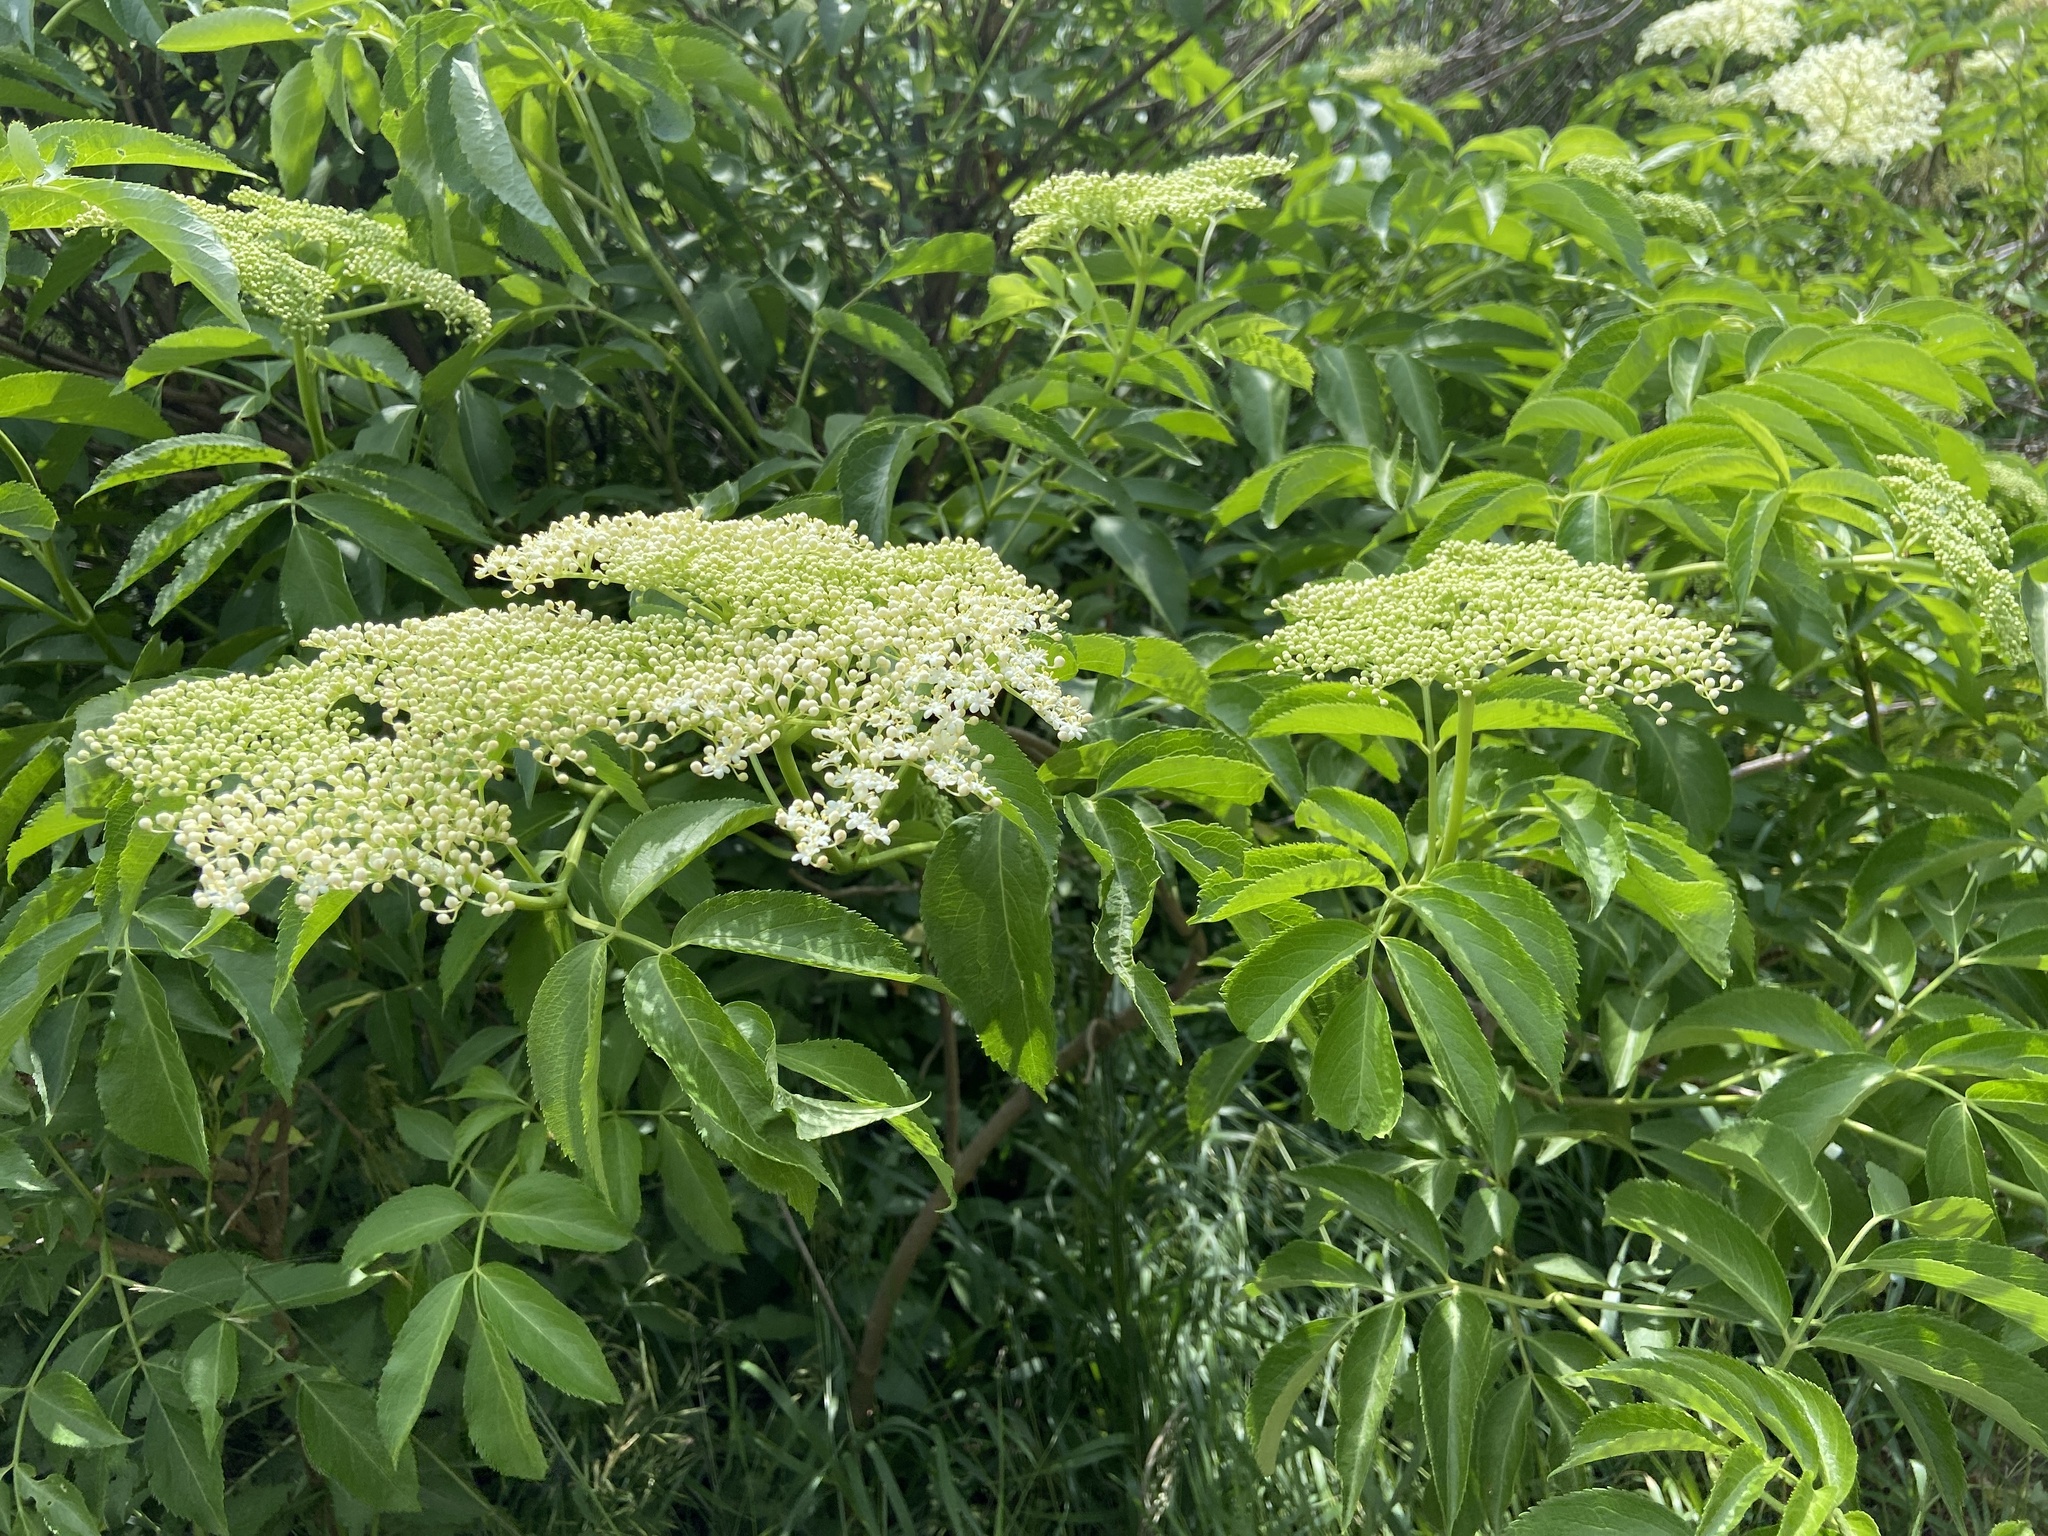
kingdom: Plantae
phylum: Tracheophyta
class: Magnoliopsida
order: Dipsacales
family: Viburnaceae
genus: Sambucus
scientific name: Sambucus canadensis
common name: American elder
